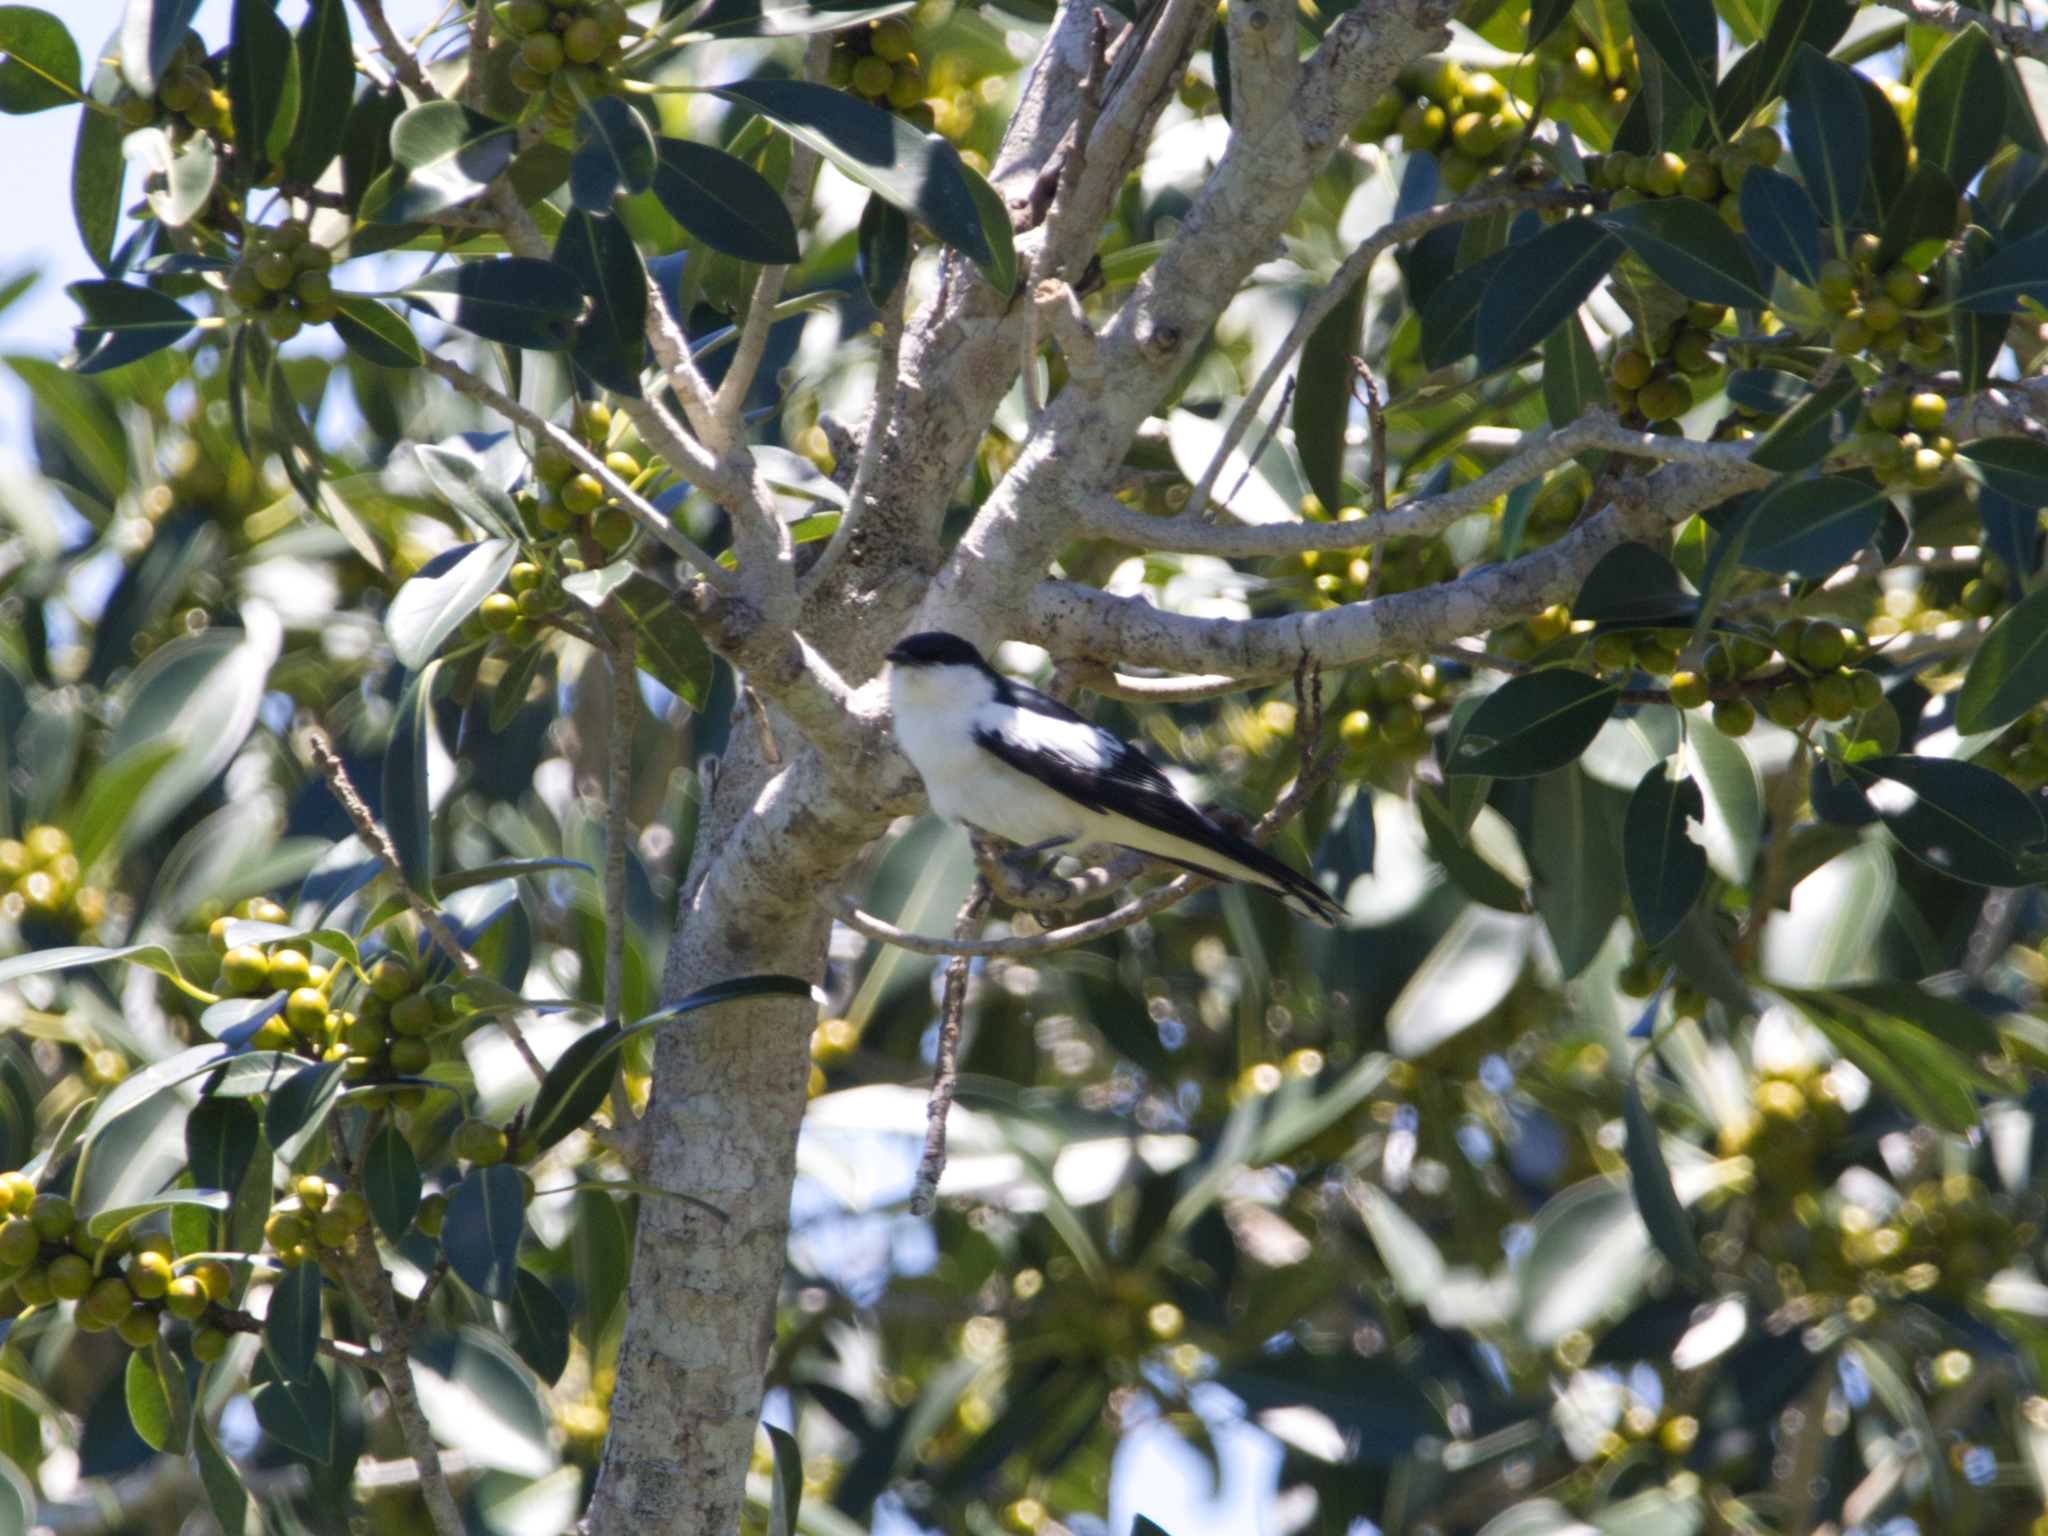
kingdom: Animalia
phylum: Chordata
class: Aves
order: Passeriformes
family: Campephagidae
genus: Lalage
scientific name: Lalage tricolor
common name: White-winged triller
